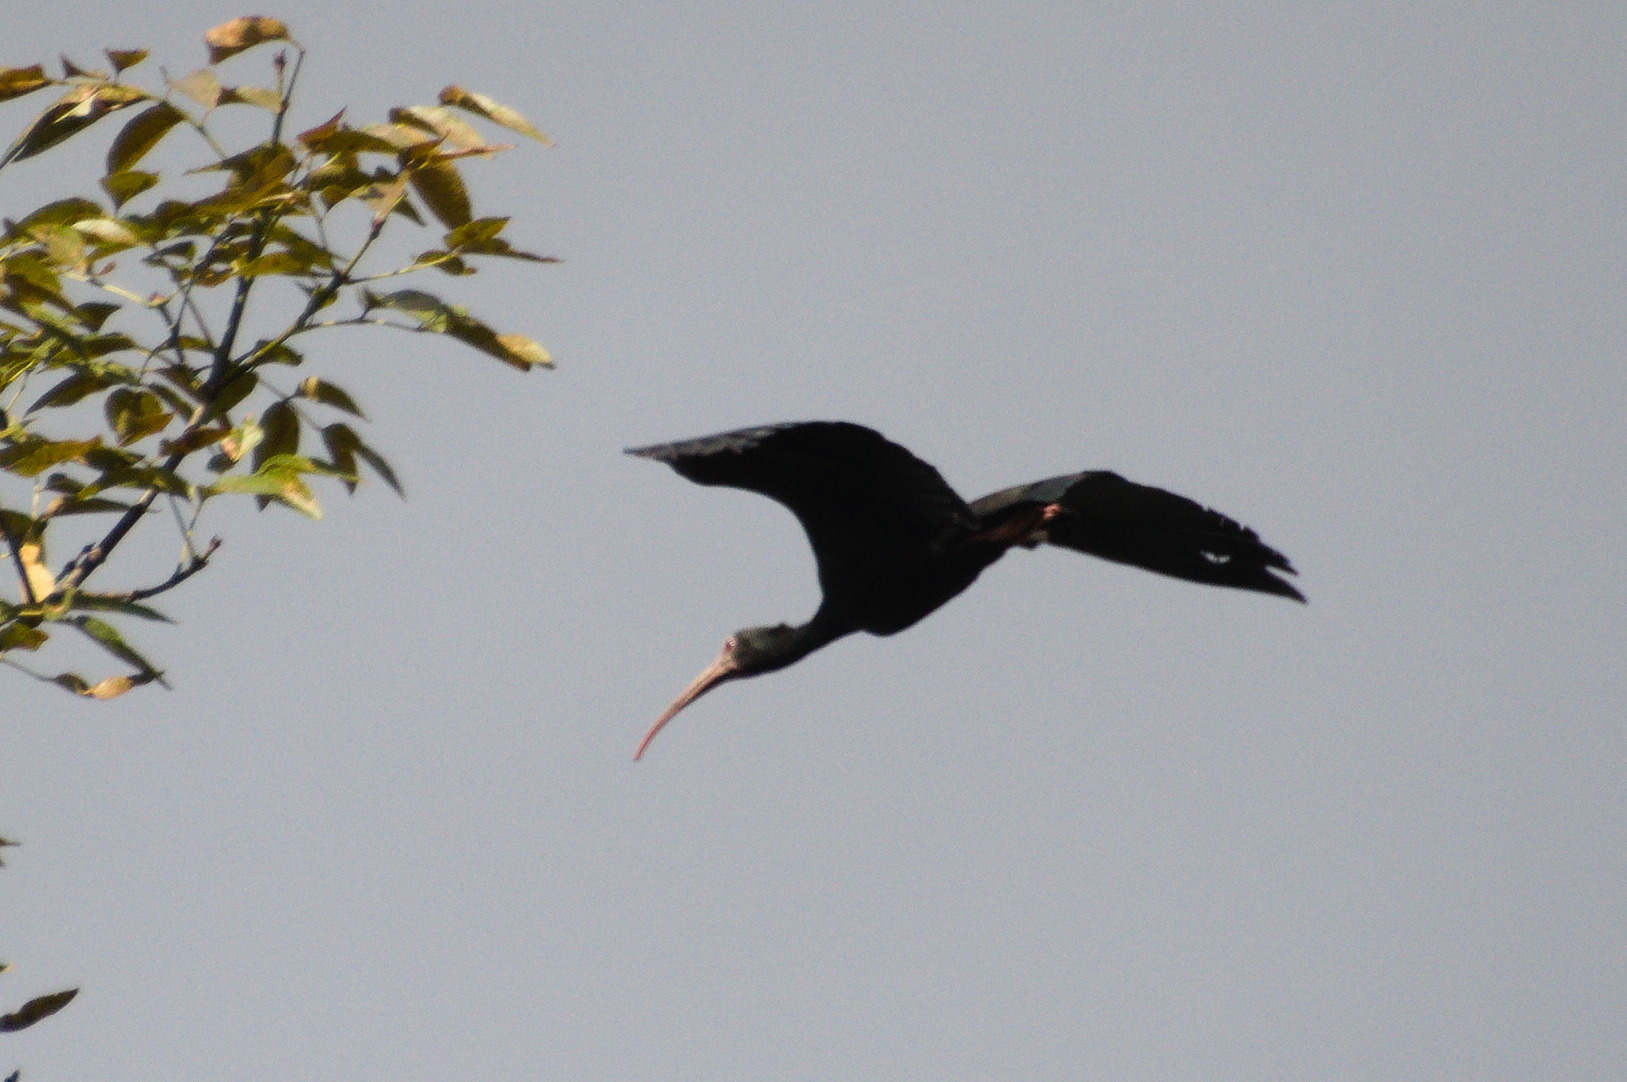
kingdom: Animalia
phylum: Chordata
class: Aves
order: Pelecaniformes
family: Threskiornithidae
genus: Phimosus
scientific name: Phimosus infuscatus
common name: Bare-faced ibis
